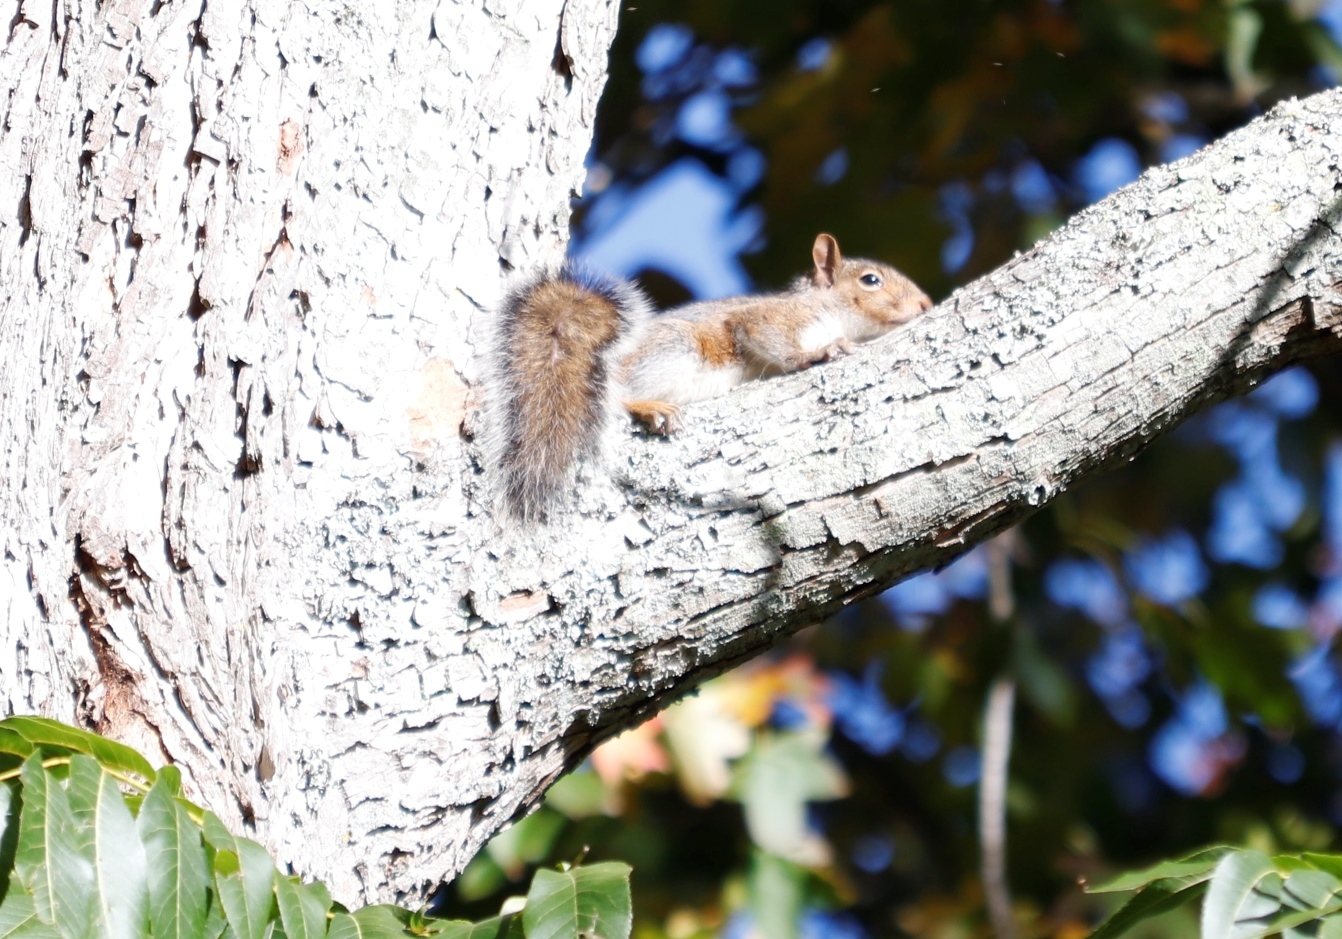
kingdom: Animalia
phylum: Chordata
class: Mammalia
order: Rodentia
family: Sciuridae
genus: Sciurus
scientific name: Sciurus carolinensis
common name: Eastern gray squirrel
